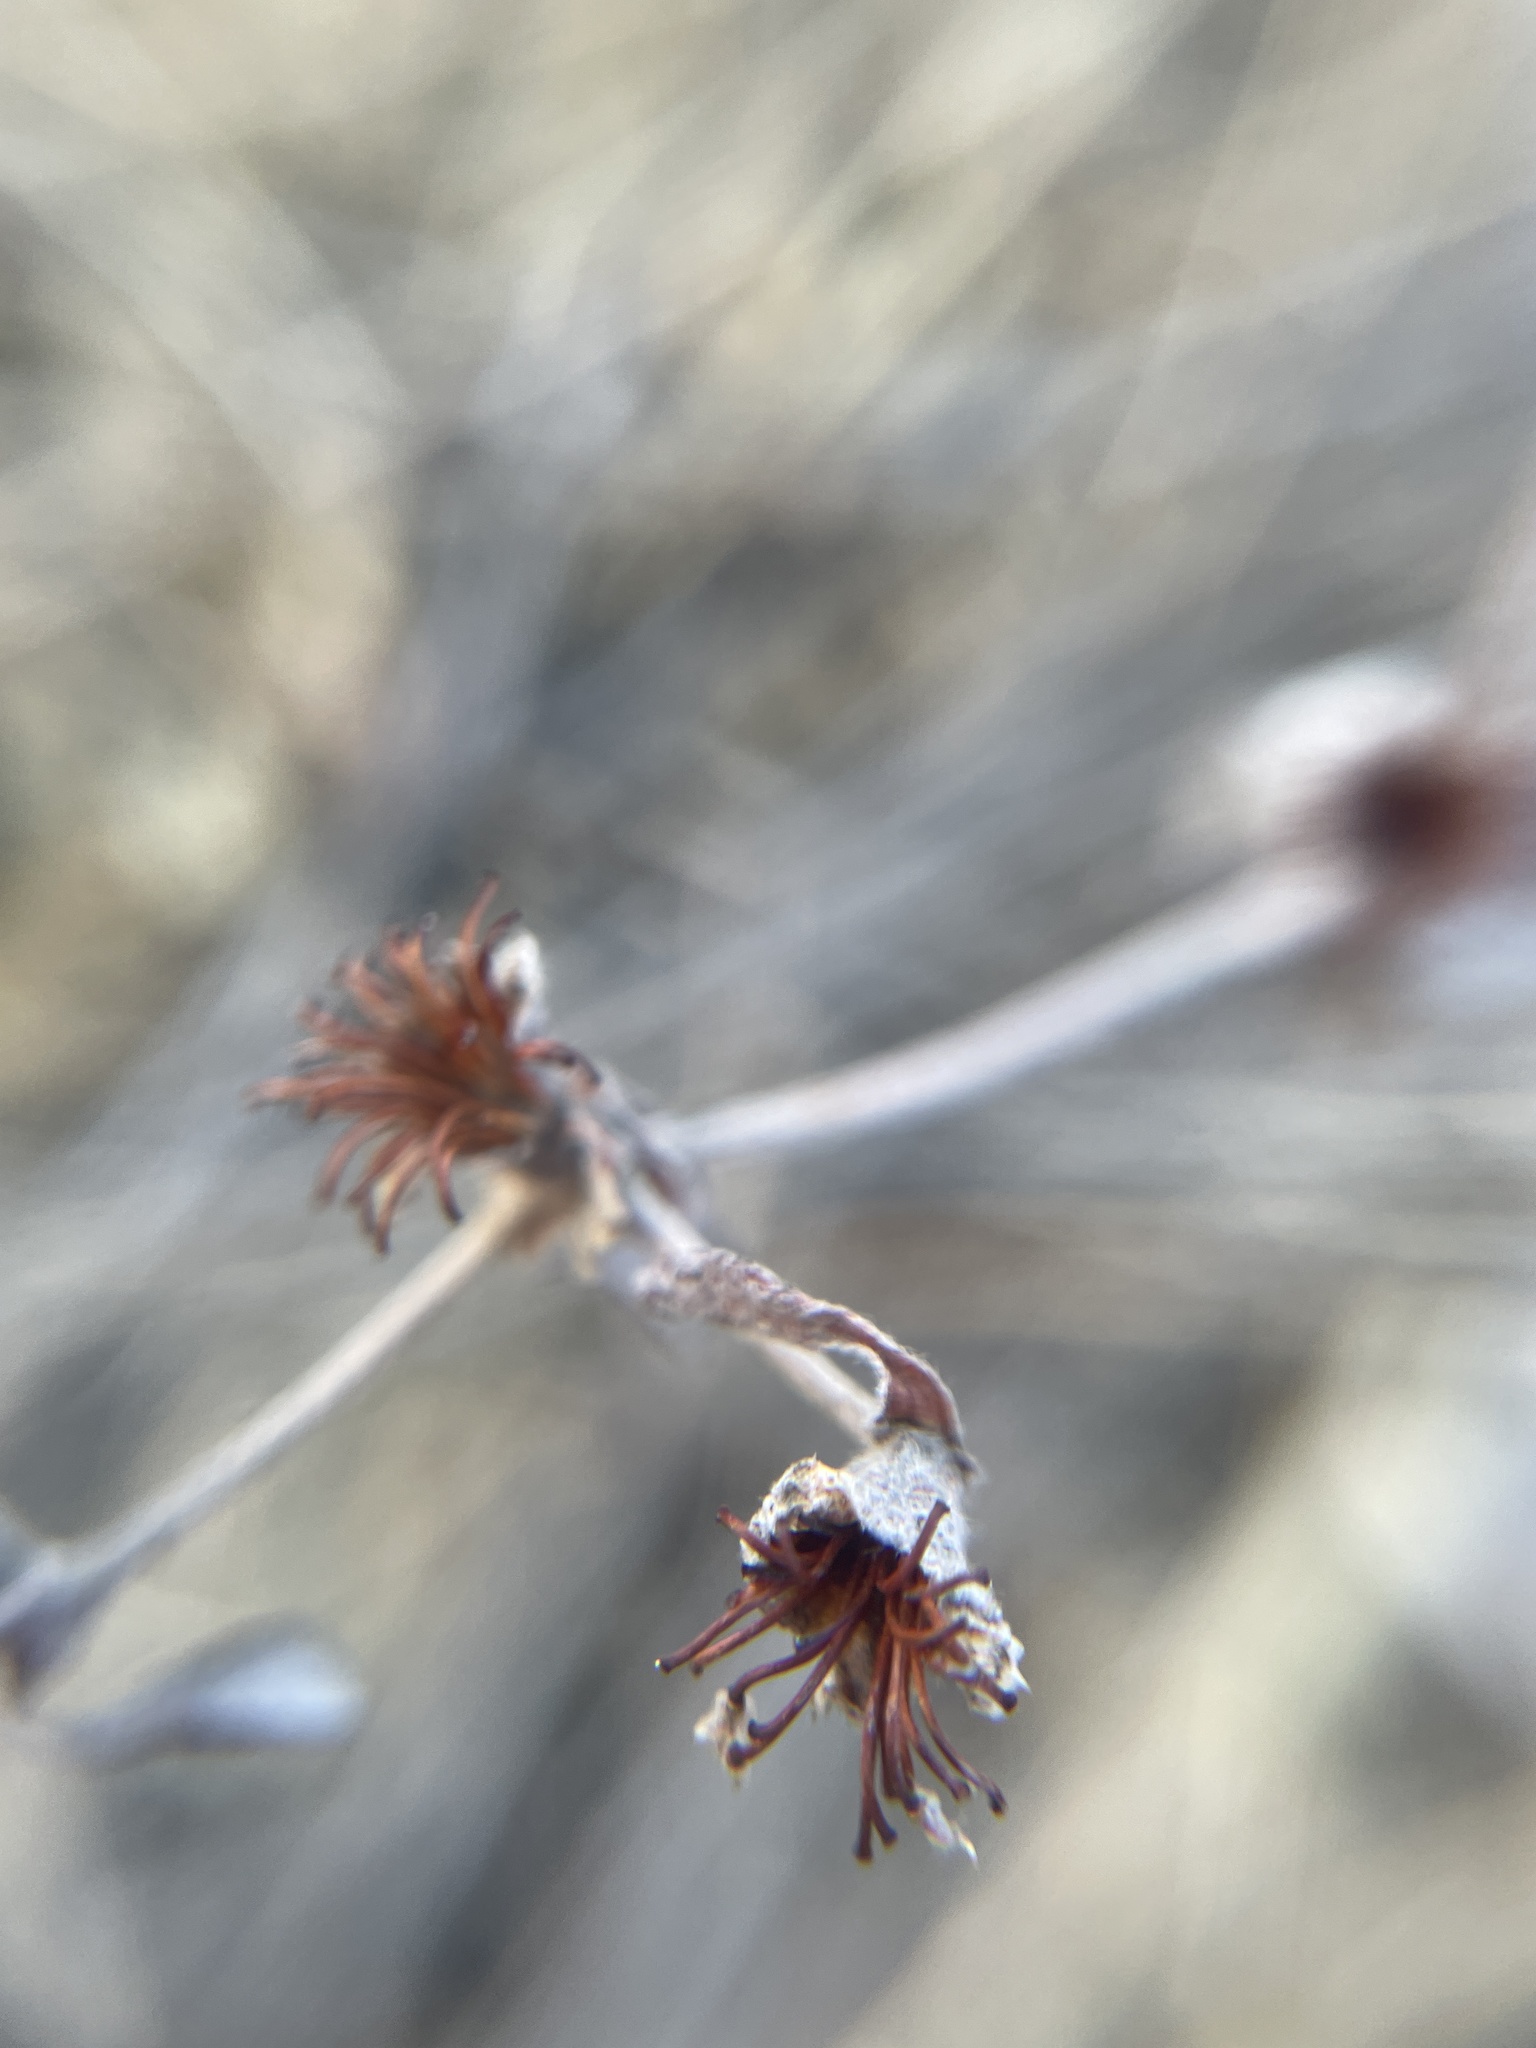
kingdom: Plantae
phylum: Tracheophyta
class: Magnoliopsida
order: Caryophyllales
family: Polygonaceae
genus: Eriogonum
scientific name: Eriogonum flavum
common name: Alpine golden wild buckwheat
